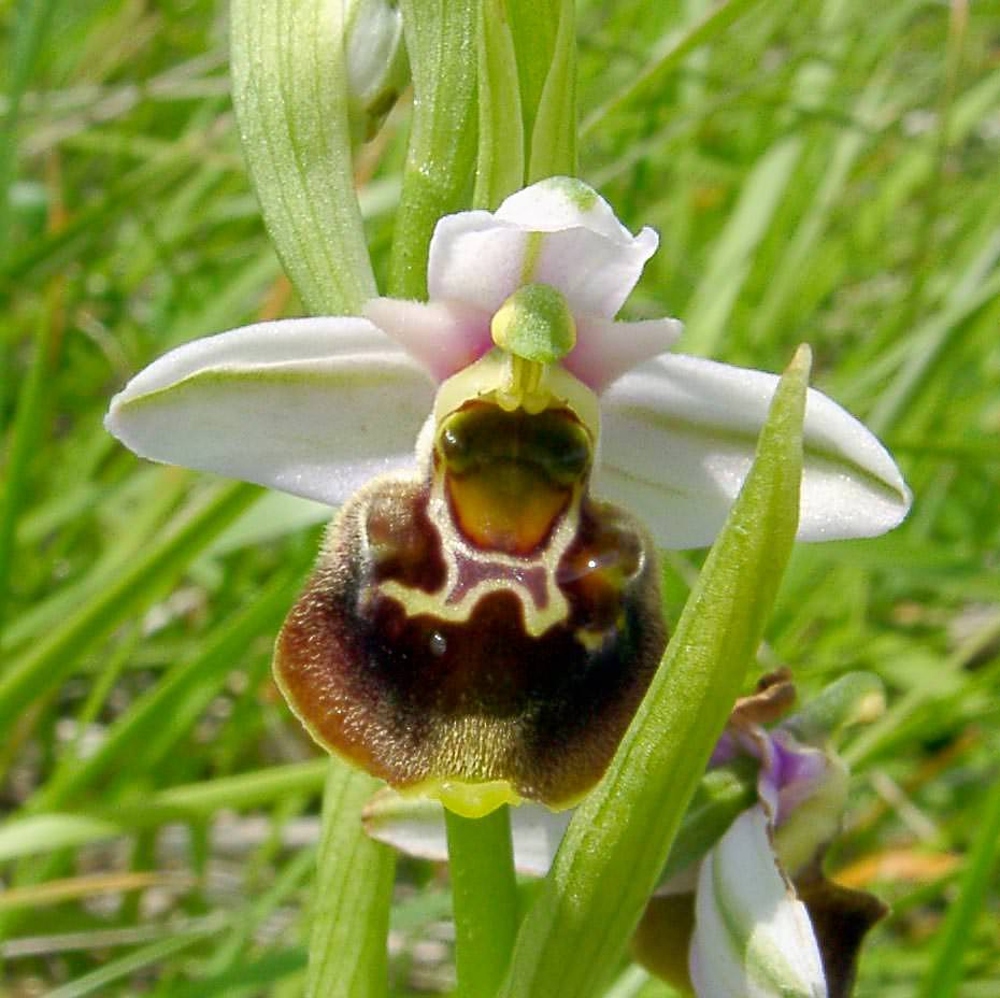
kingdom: Plantae
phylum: Tracheophyta
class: Liliopsida
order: Asparagales
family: Orchidaceae
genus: Ophrys
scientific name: Ophrys holosericea
